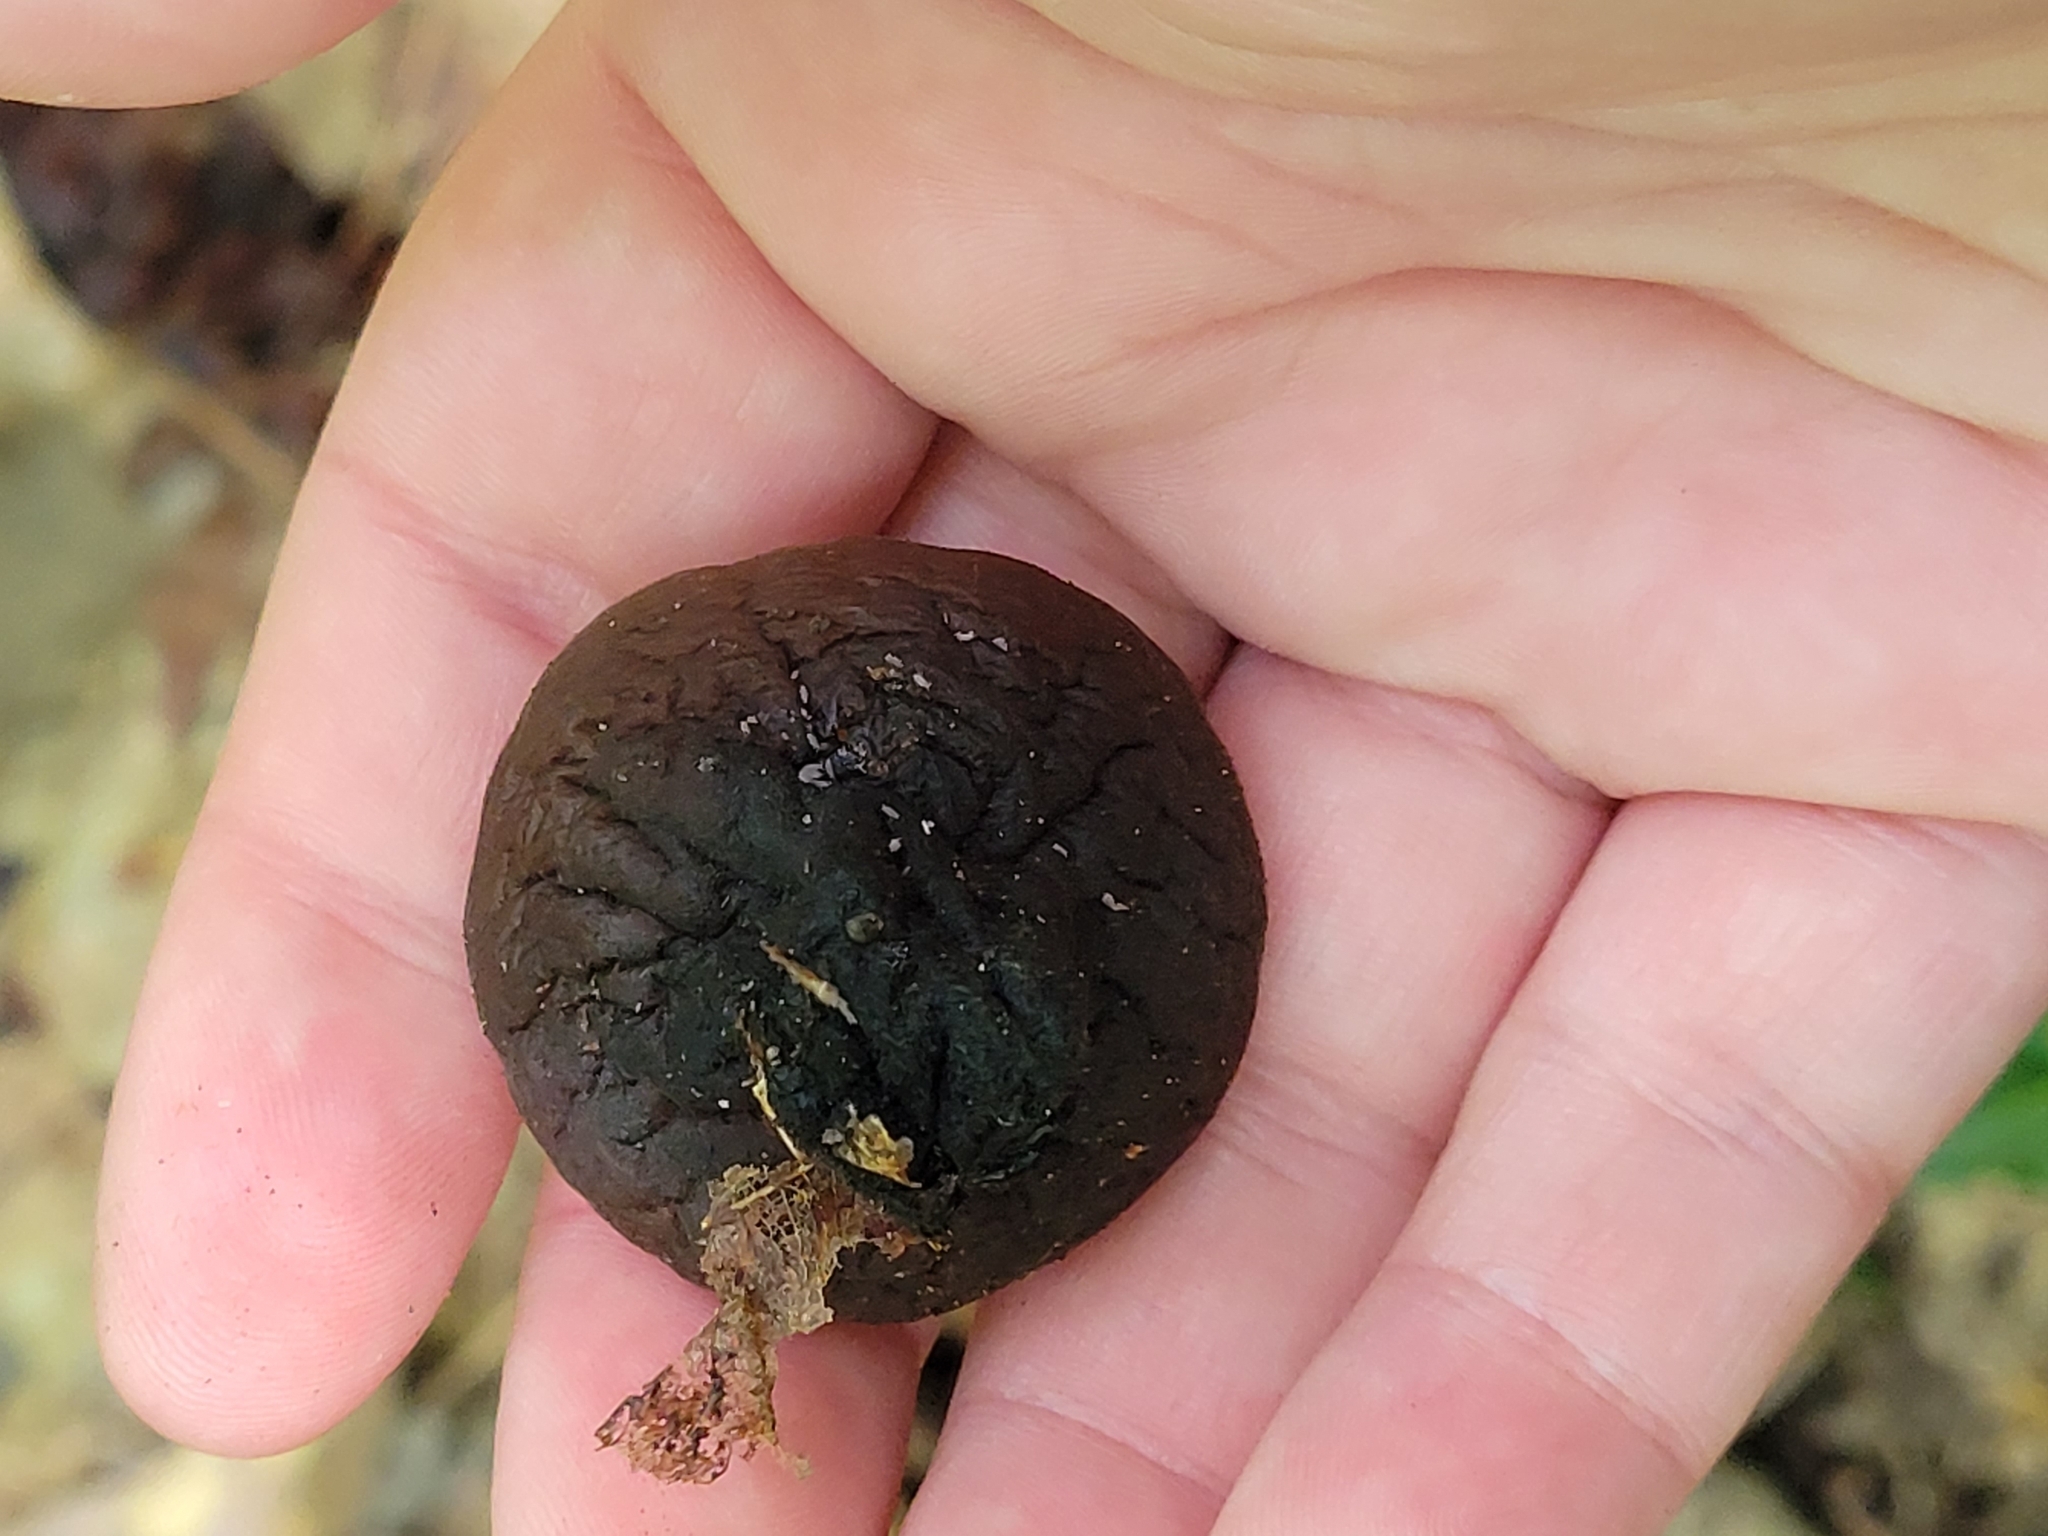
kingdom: Fungi
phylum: Ascomycota
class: Pezizomycetes
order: Pezizales
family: Sarcosomataceae
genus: Galiella
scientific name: Galiella rufa
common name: Hairy rubber cup
